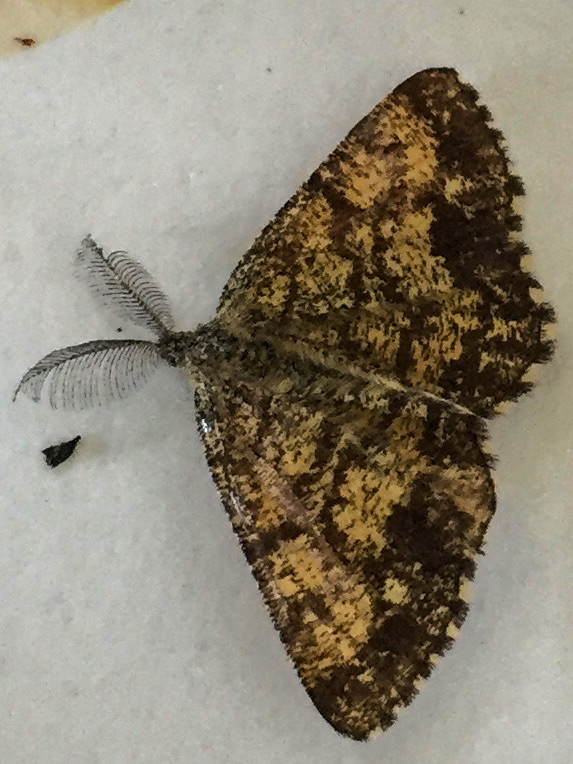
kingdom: Animalia
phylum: Arthropoda
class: Insecta
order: Lepidoptera
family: Geometridae
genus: Ematurga
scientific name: Ematurga atomaria
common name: Common heath
